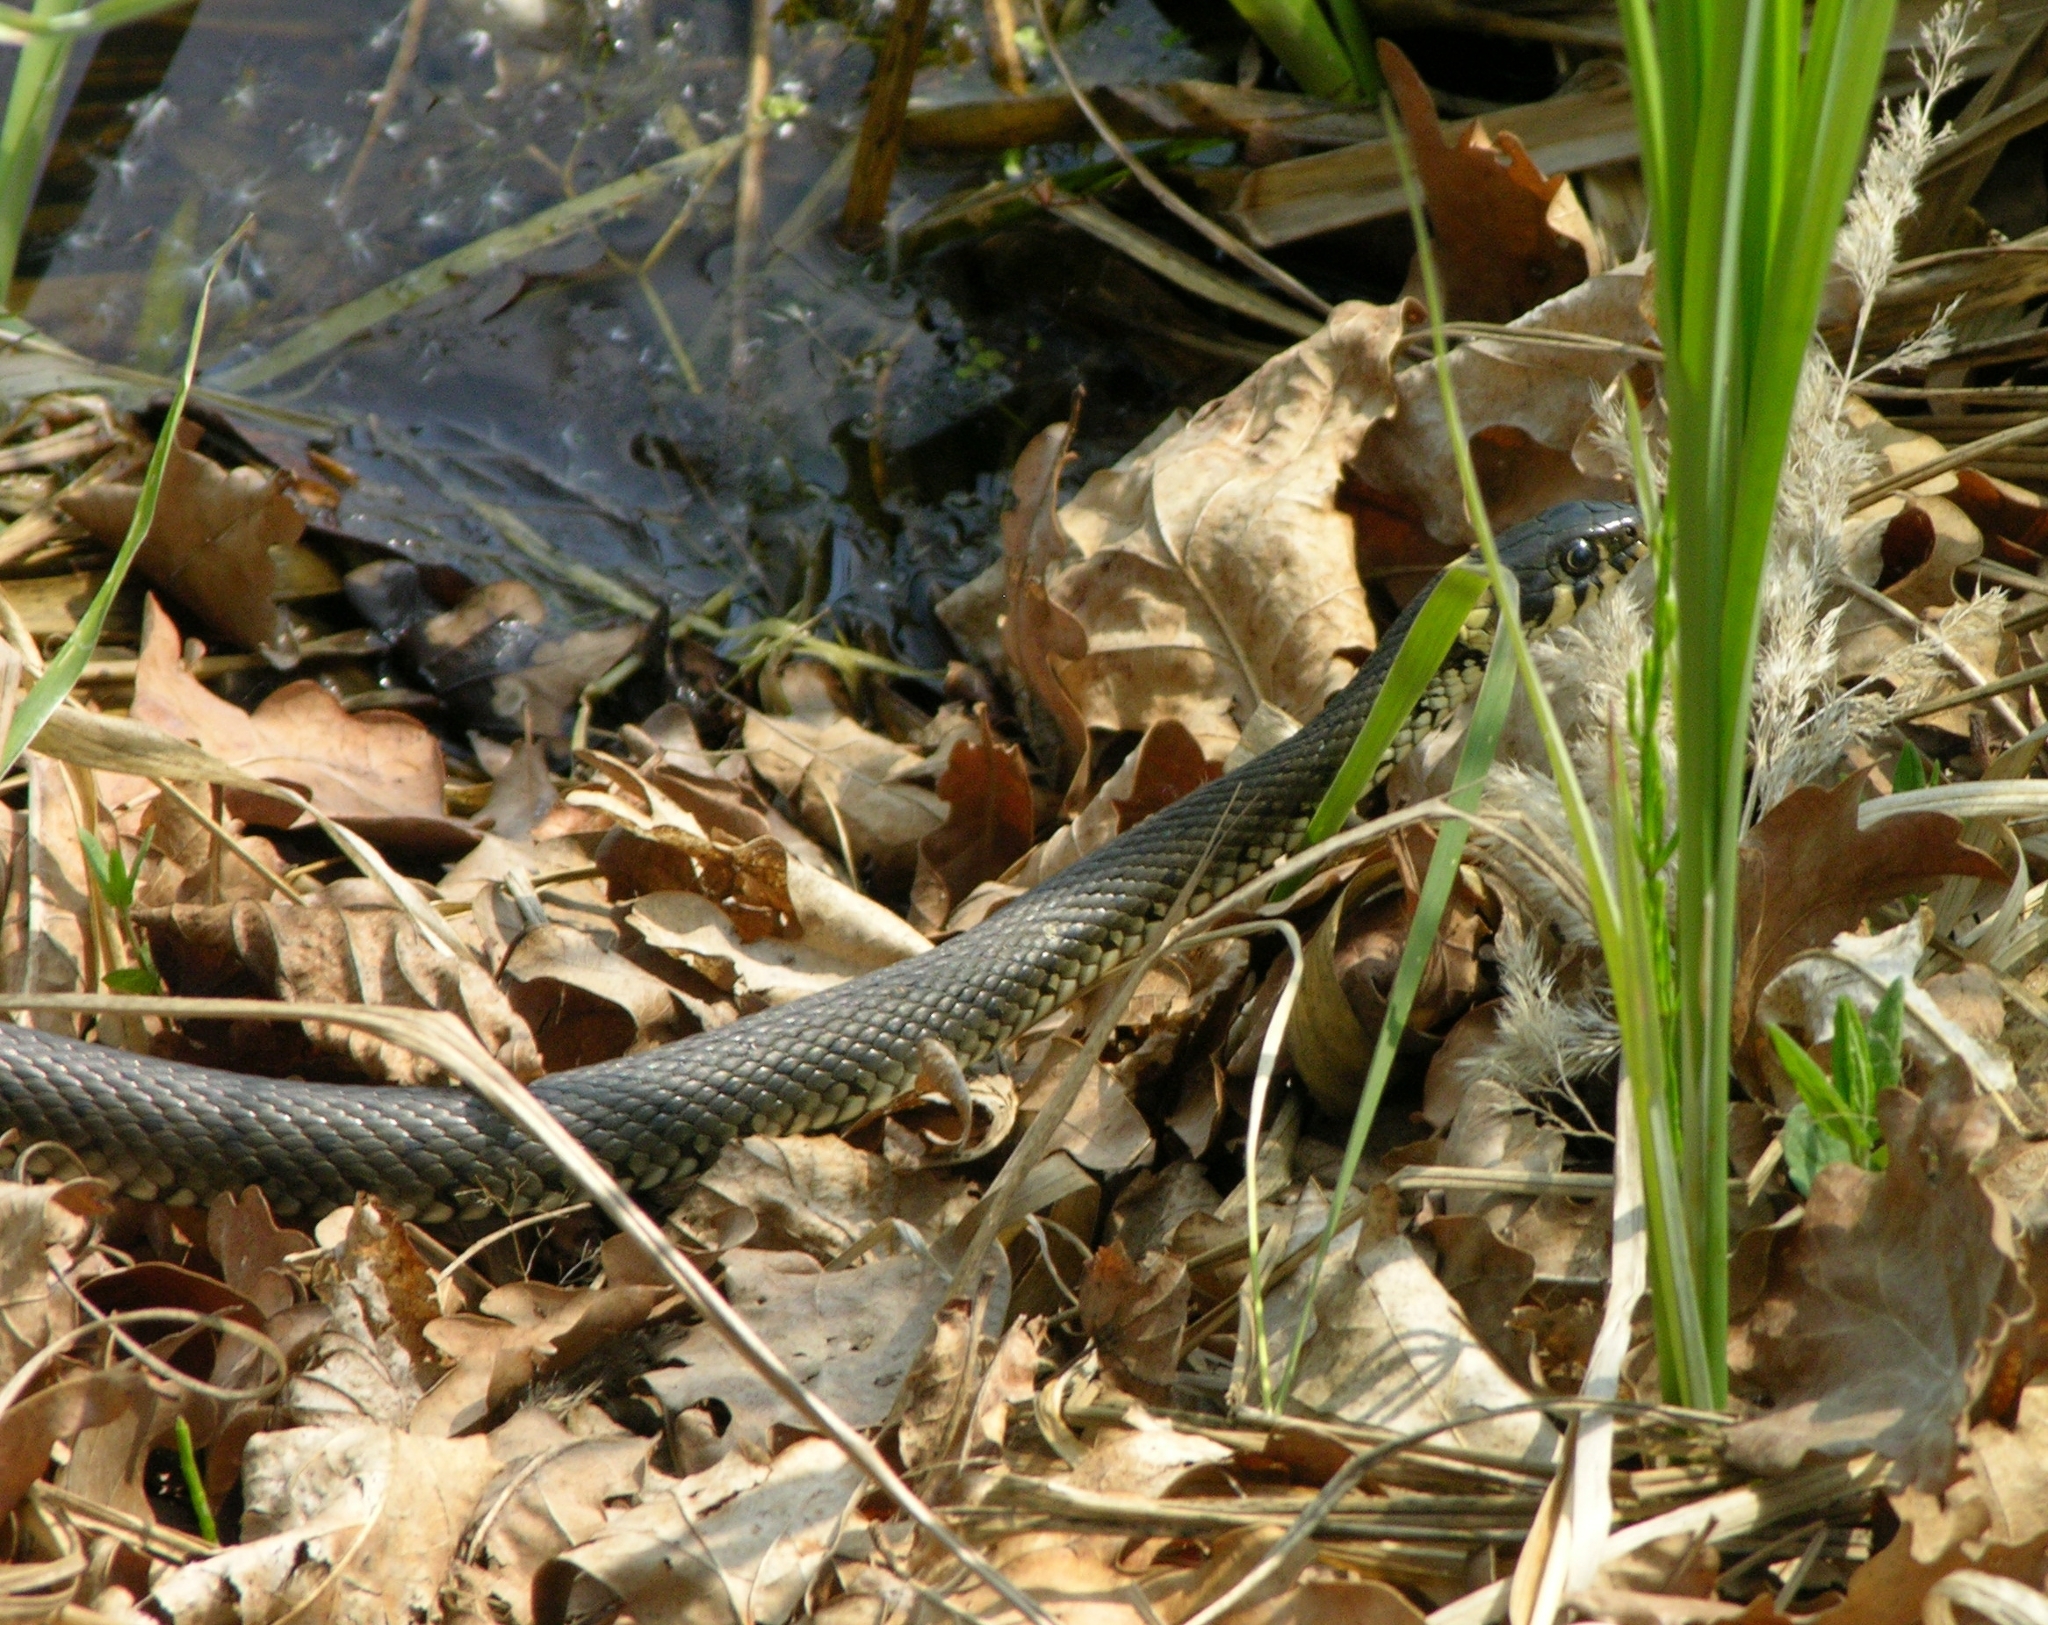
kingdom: Animalia
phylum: Chordata
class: Squamata
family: Colubridae
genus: Natrix
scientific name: Natrix natrix
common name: Grass snake
